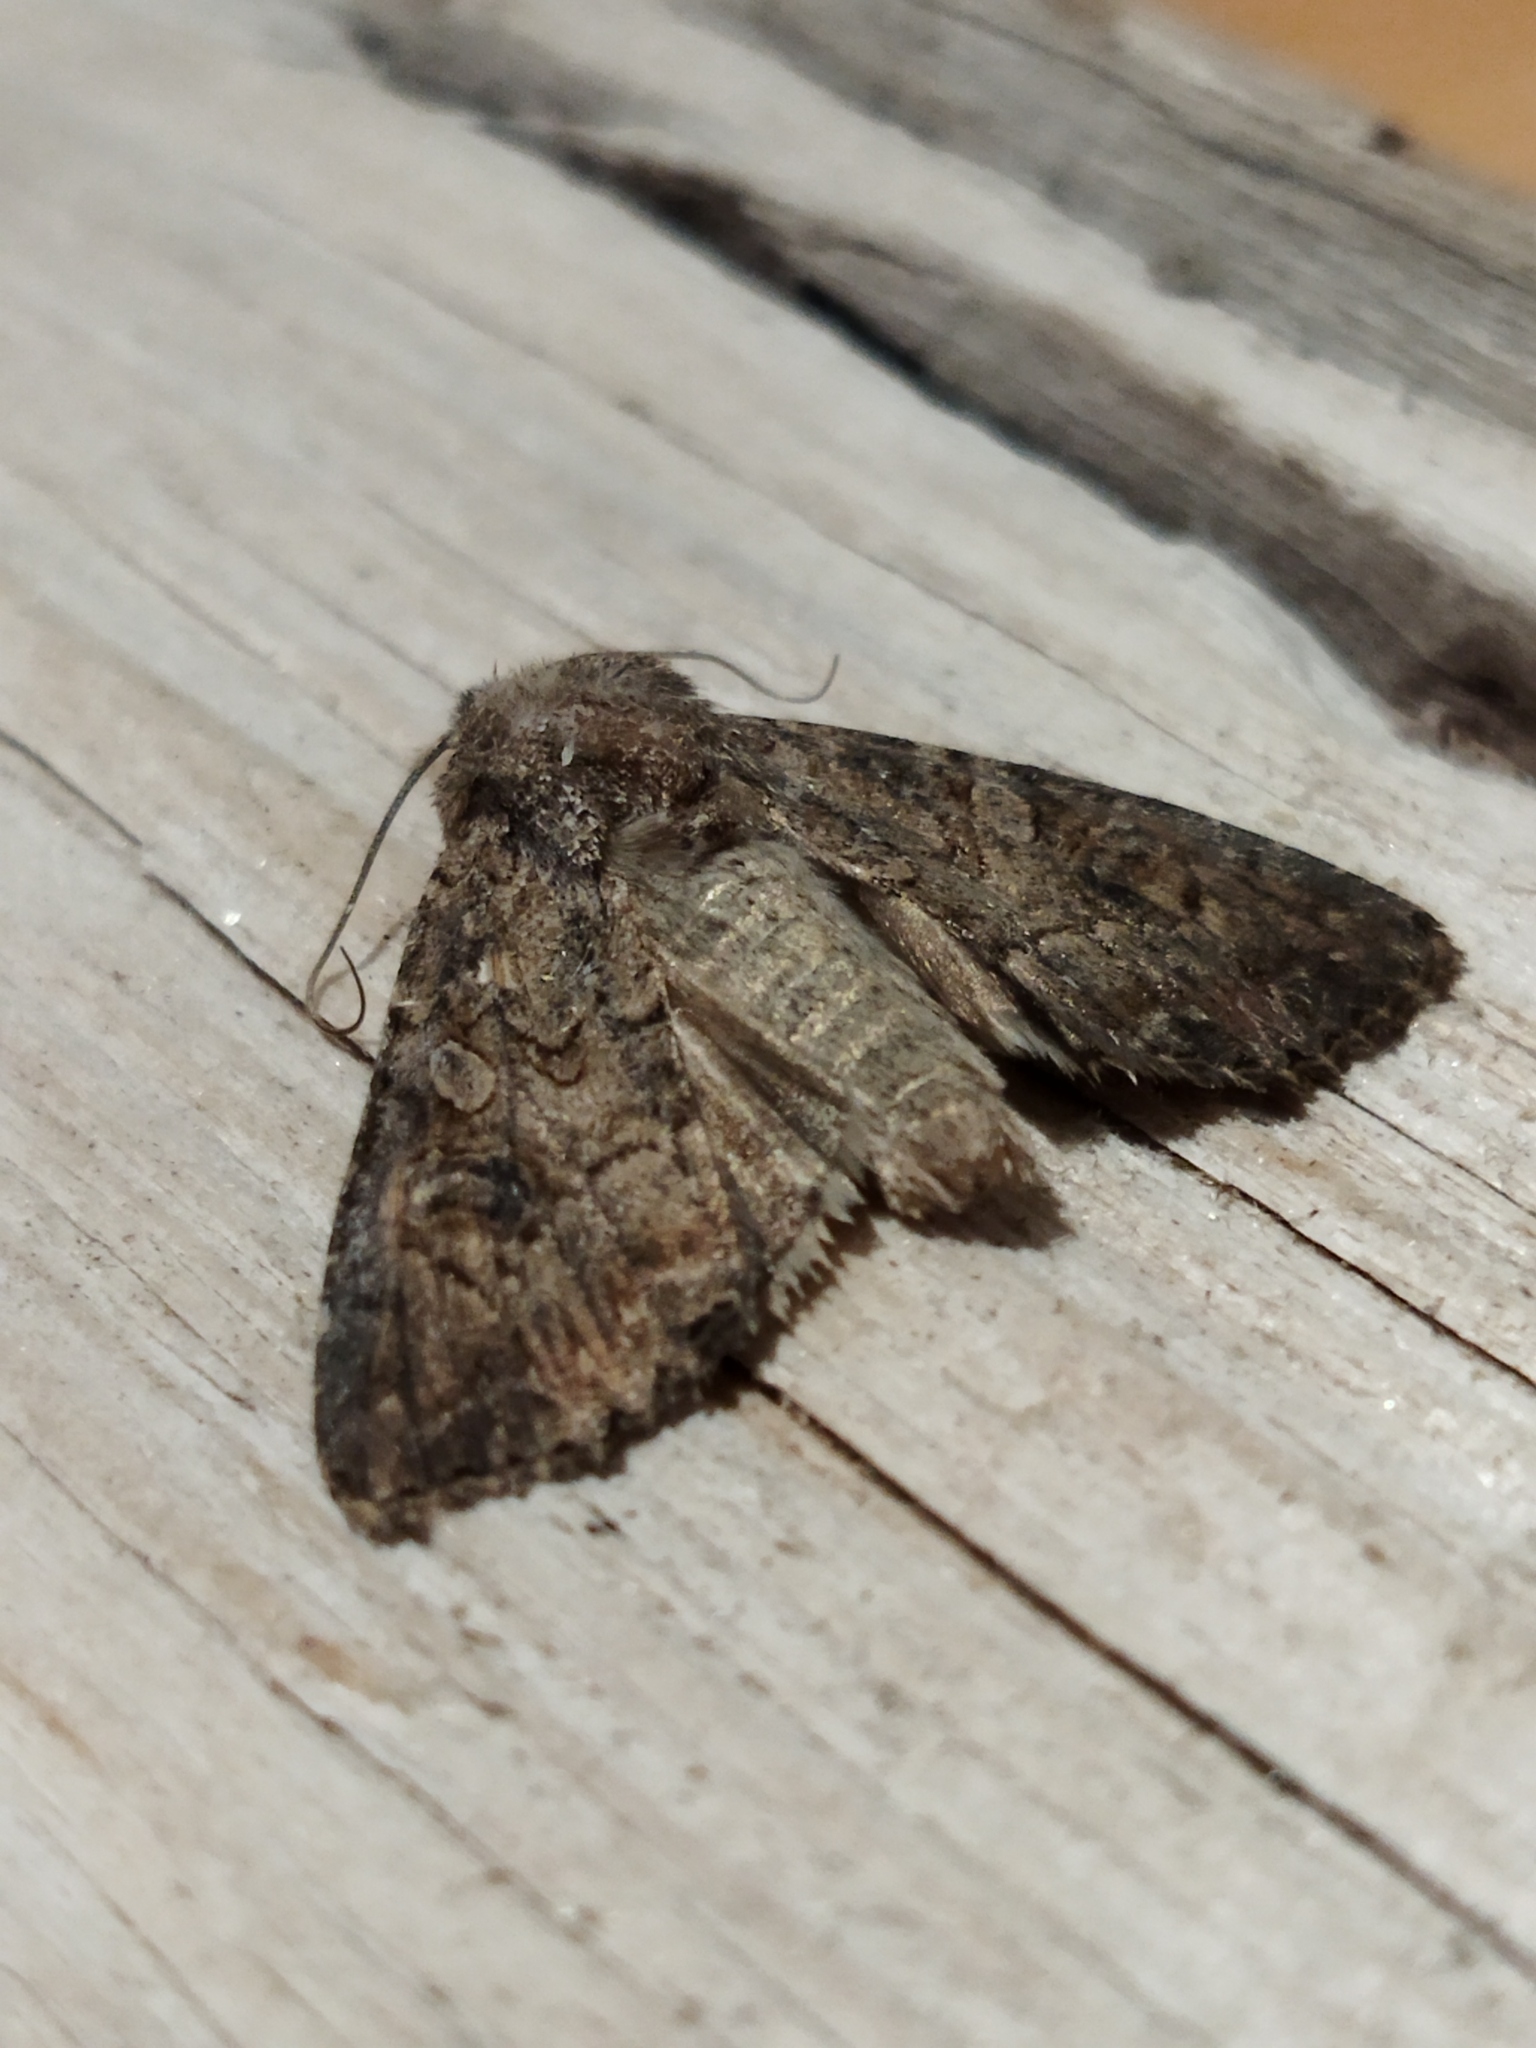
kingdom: Animalia
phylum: Arthropoda
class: Insecta
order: Lepidoptera
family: Noctuidae
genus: Anarta
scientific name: Anarta trifolii
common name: Clover cutworm moth
